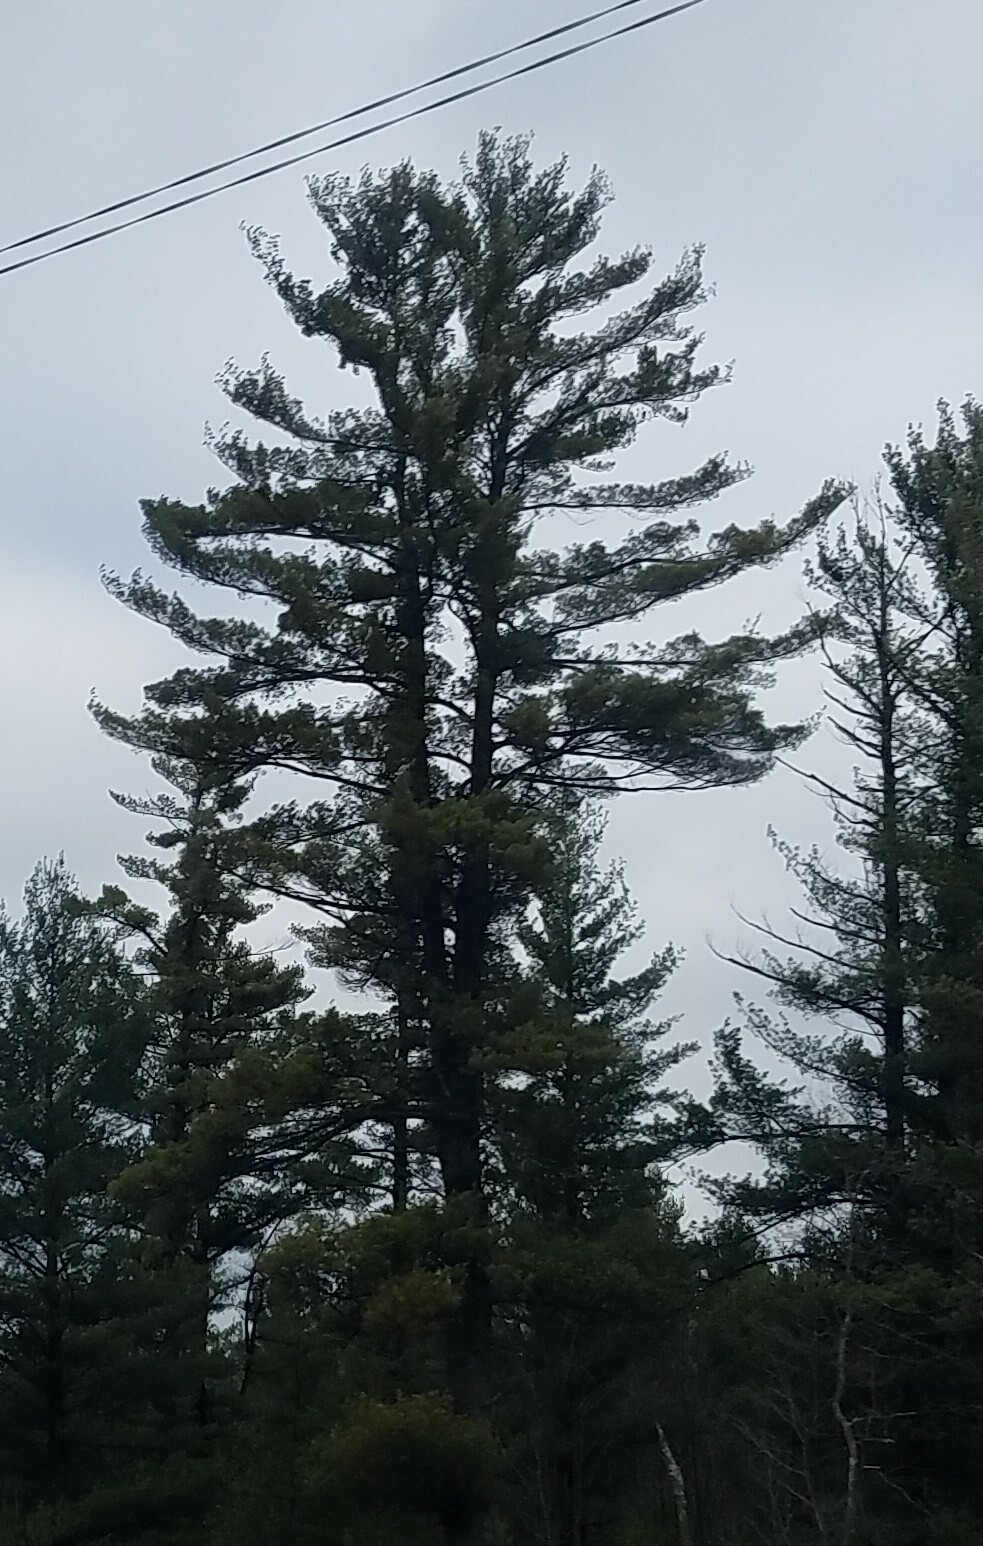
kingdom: Plantae
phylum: Tracheophyta
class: Pinopsida
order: Pinales
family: Pinaceae
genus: Pinus
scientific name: Pinus strobus
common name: Weymouth pine
